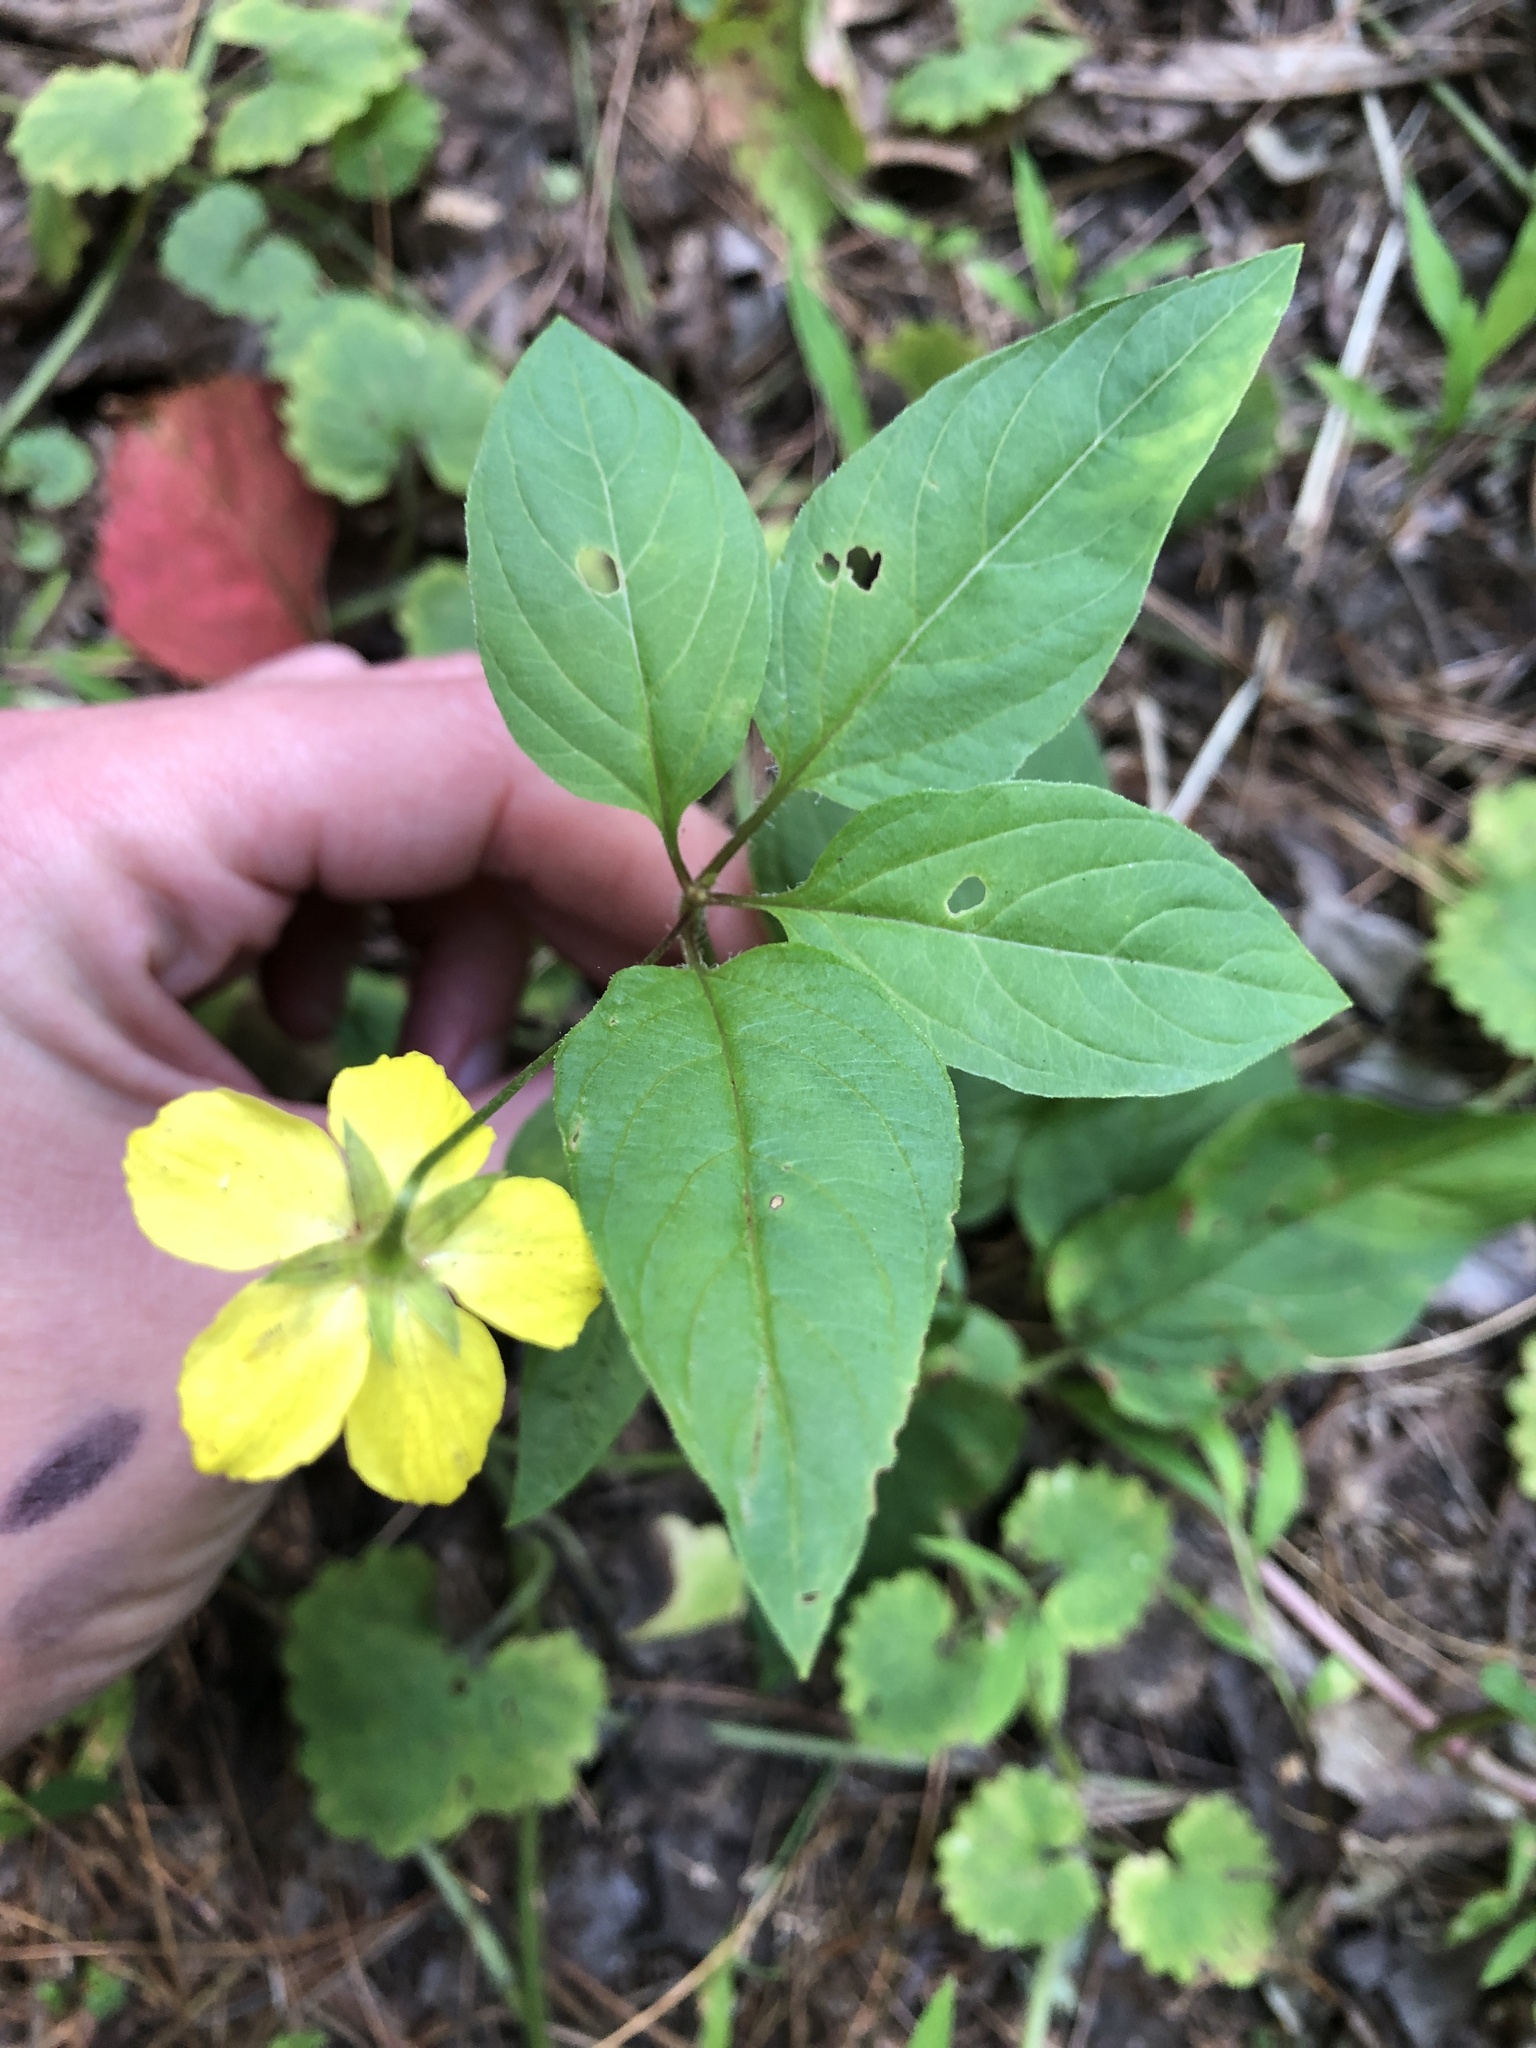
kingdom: Plantae
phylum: Tracheophyta
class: Magnoliopsida
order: Ericales
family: Primulaceae
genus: Lysimachia
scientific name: Lysimachia ciliata
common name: Fringed loosestrife
